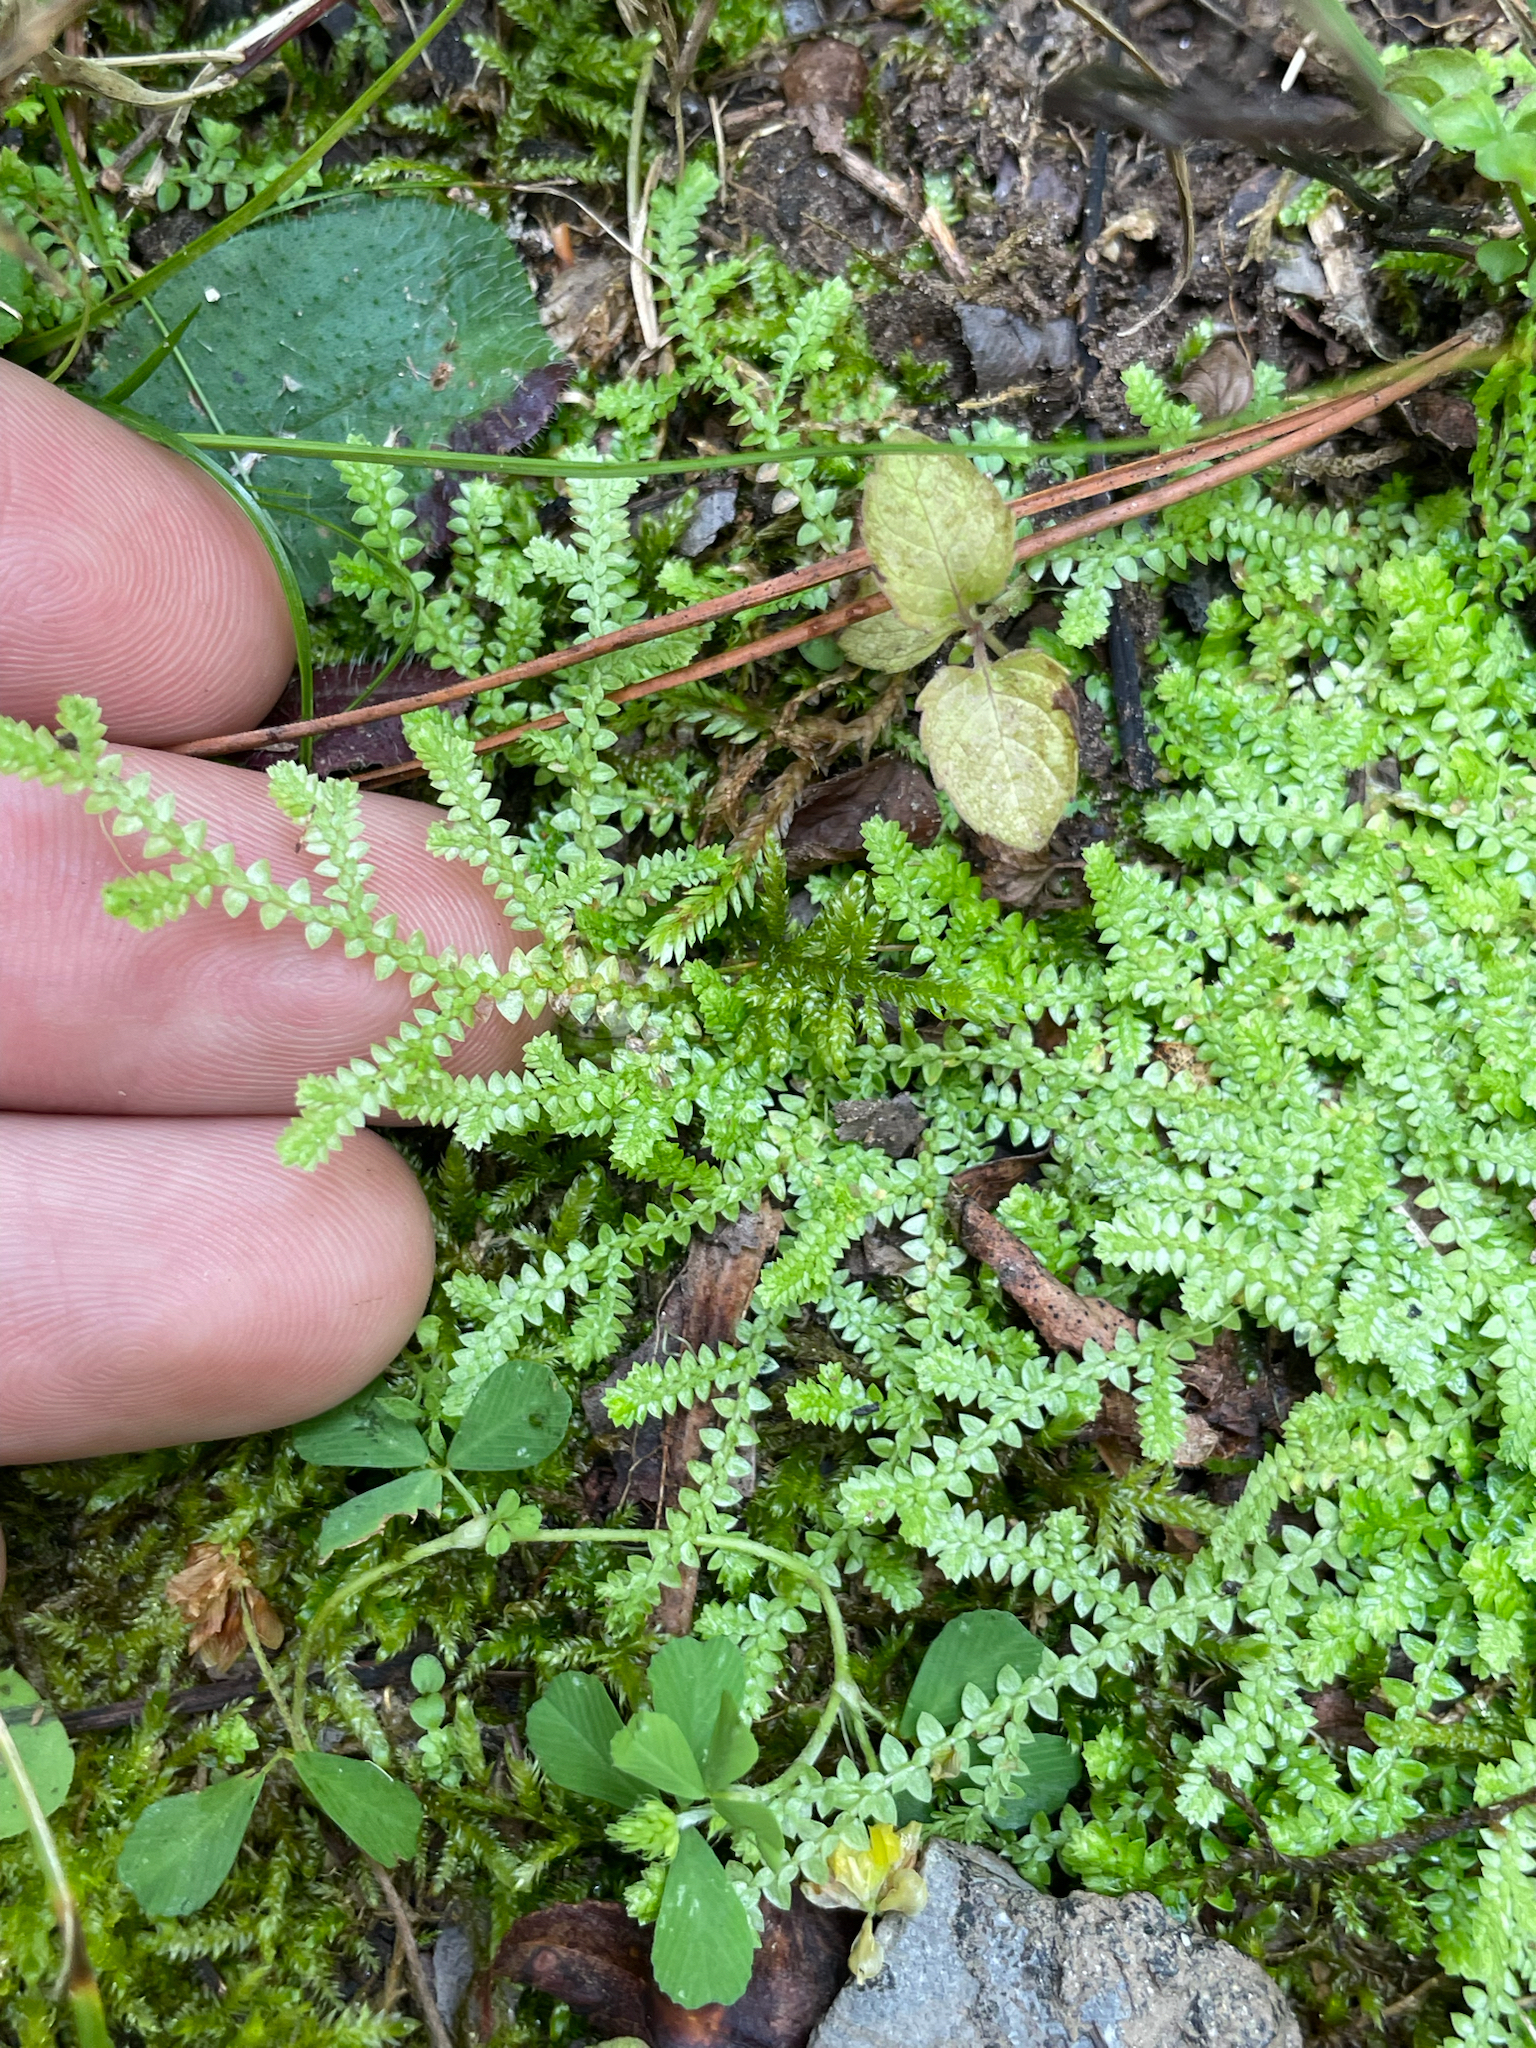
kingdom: Plantae
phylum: Tracheophyta
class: Lycopodiopsida
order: Selaginellales
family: Selaginellaceae
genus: Selaginella
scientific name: Selaginella apoda
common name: Creeping spikemoss
